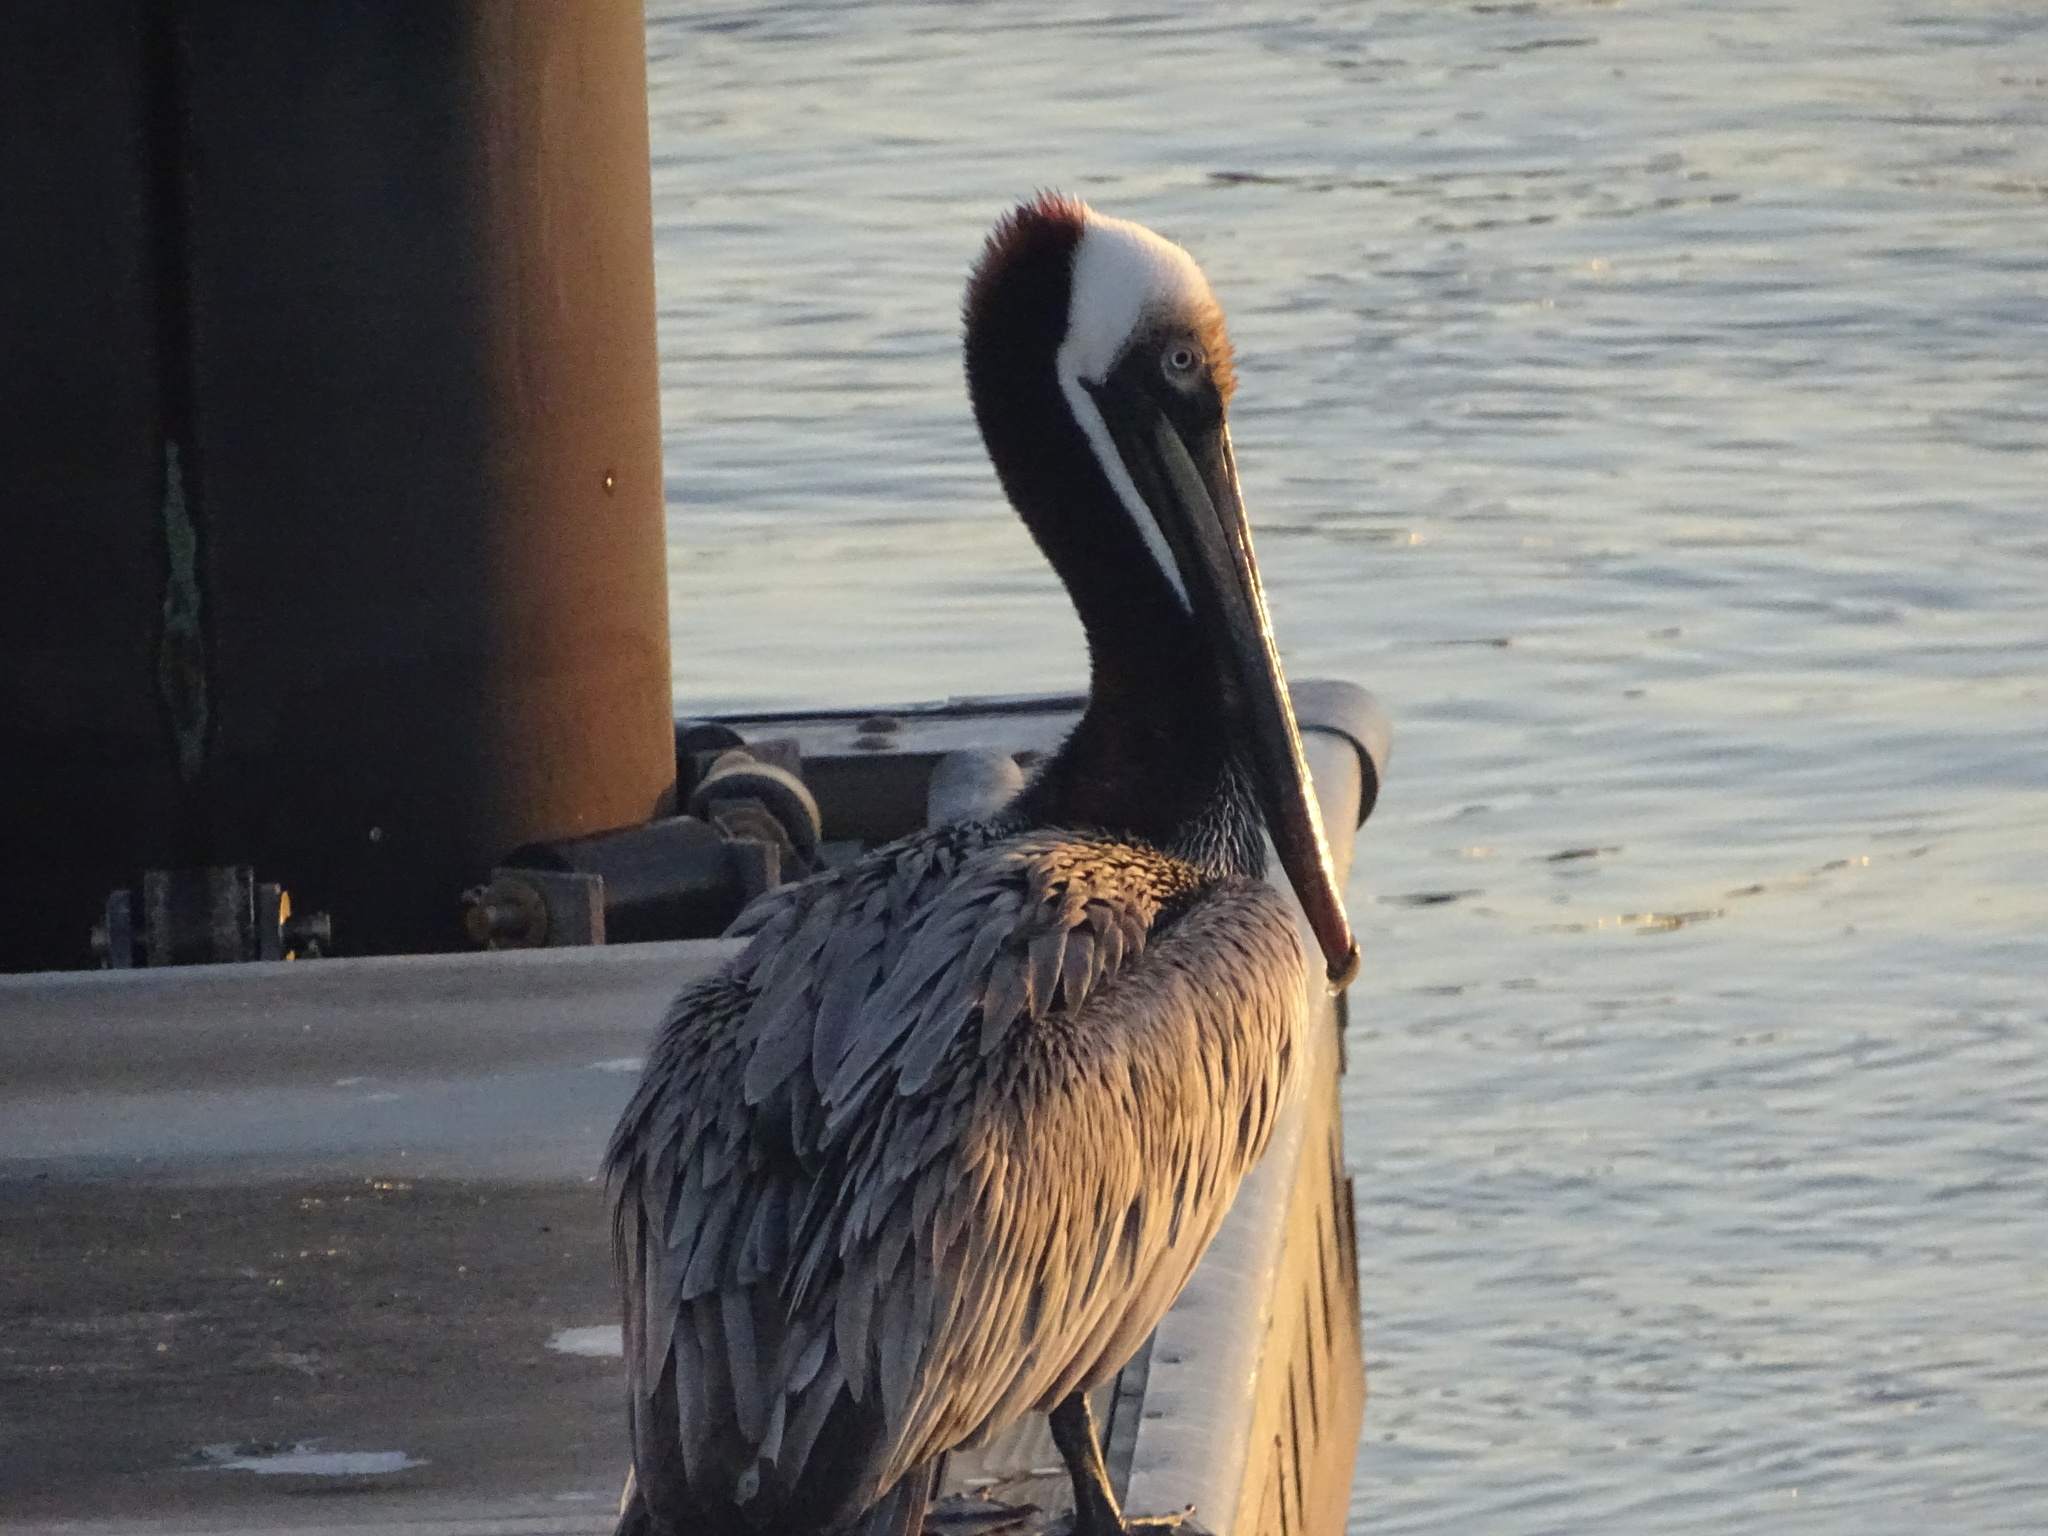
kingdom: Animalia
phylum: Chordata
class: Aves
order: Pelecaniformes
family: Pelecanidae
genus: Pelecanus
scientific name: Pelecanus occidentalis
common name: Brown pelican
